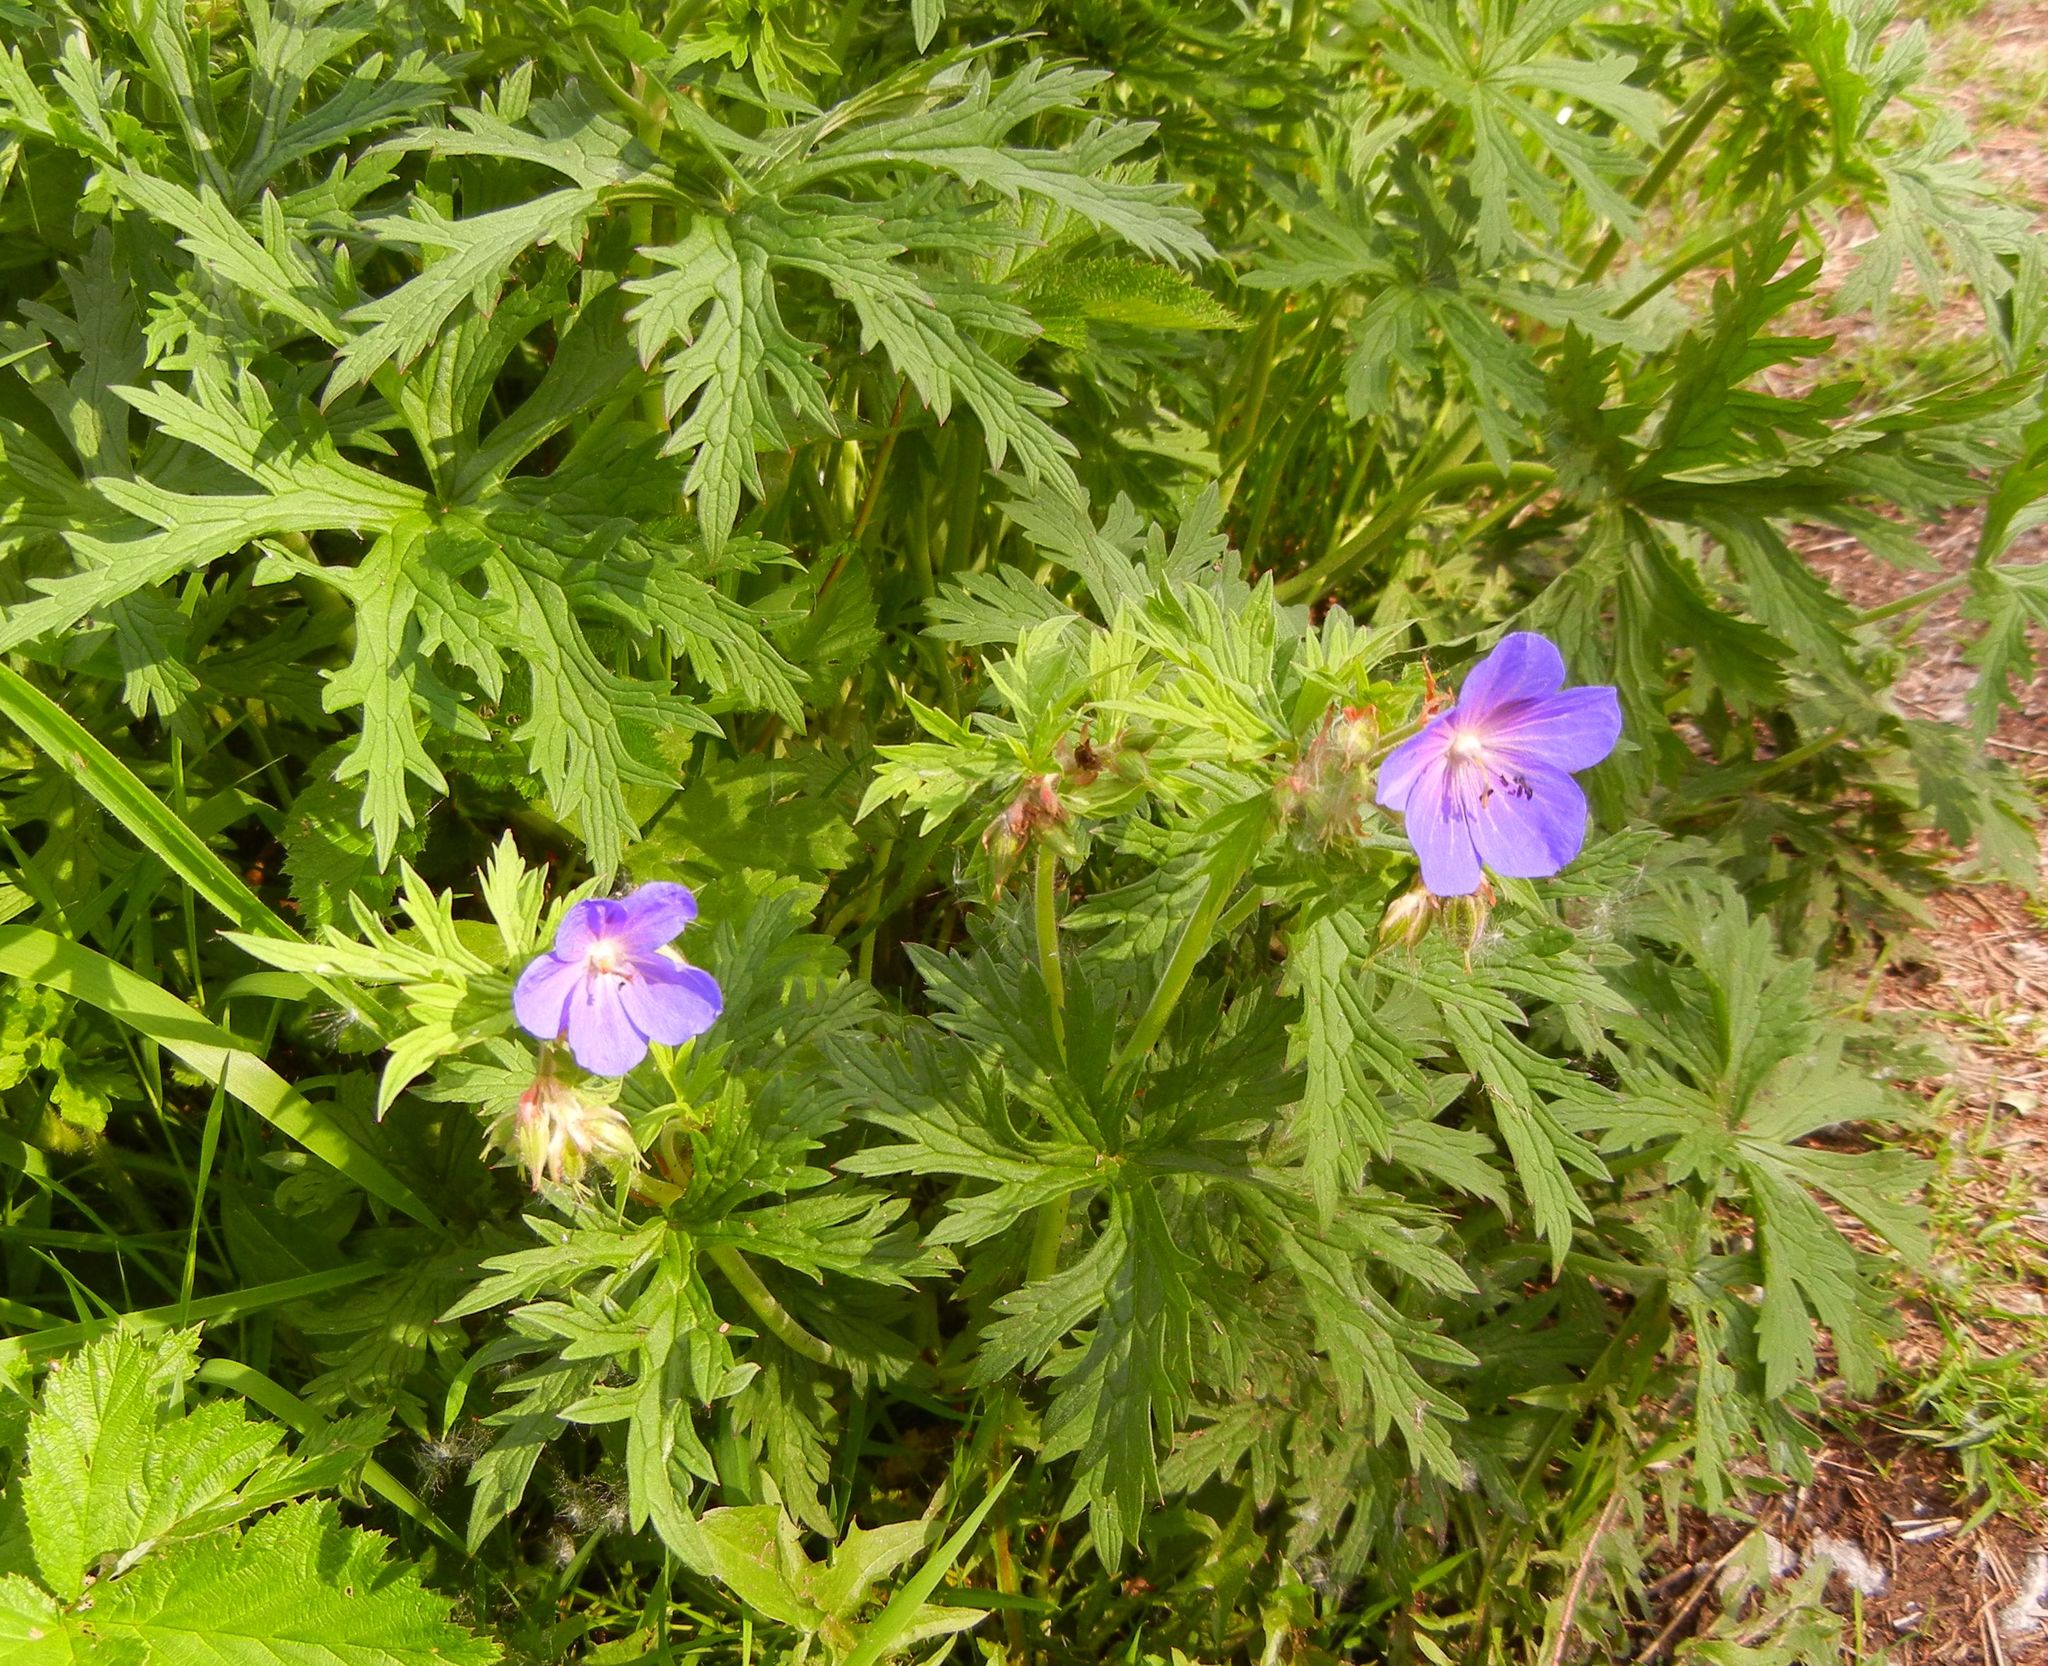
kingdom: Plantae
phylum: Tracheophyta
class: Magnoliopsida
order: Geraniales
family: Geraniaceae
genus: Geranium
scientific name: Geranium pratense
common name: Meadow crane's-bill
